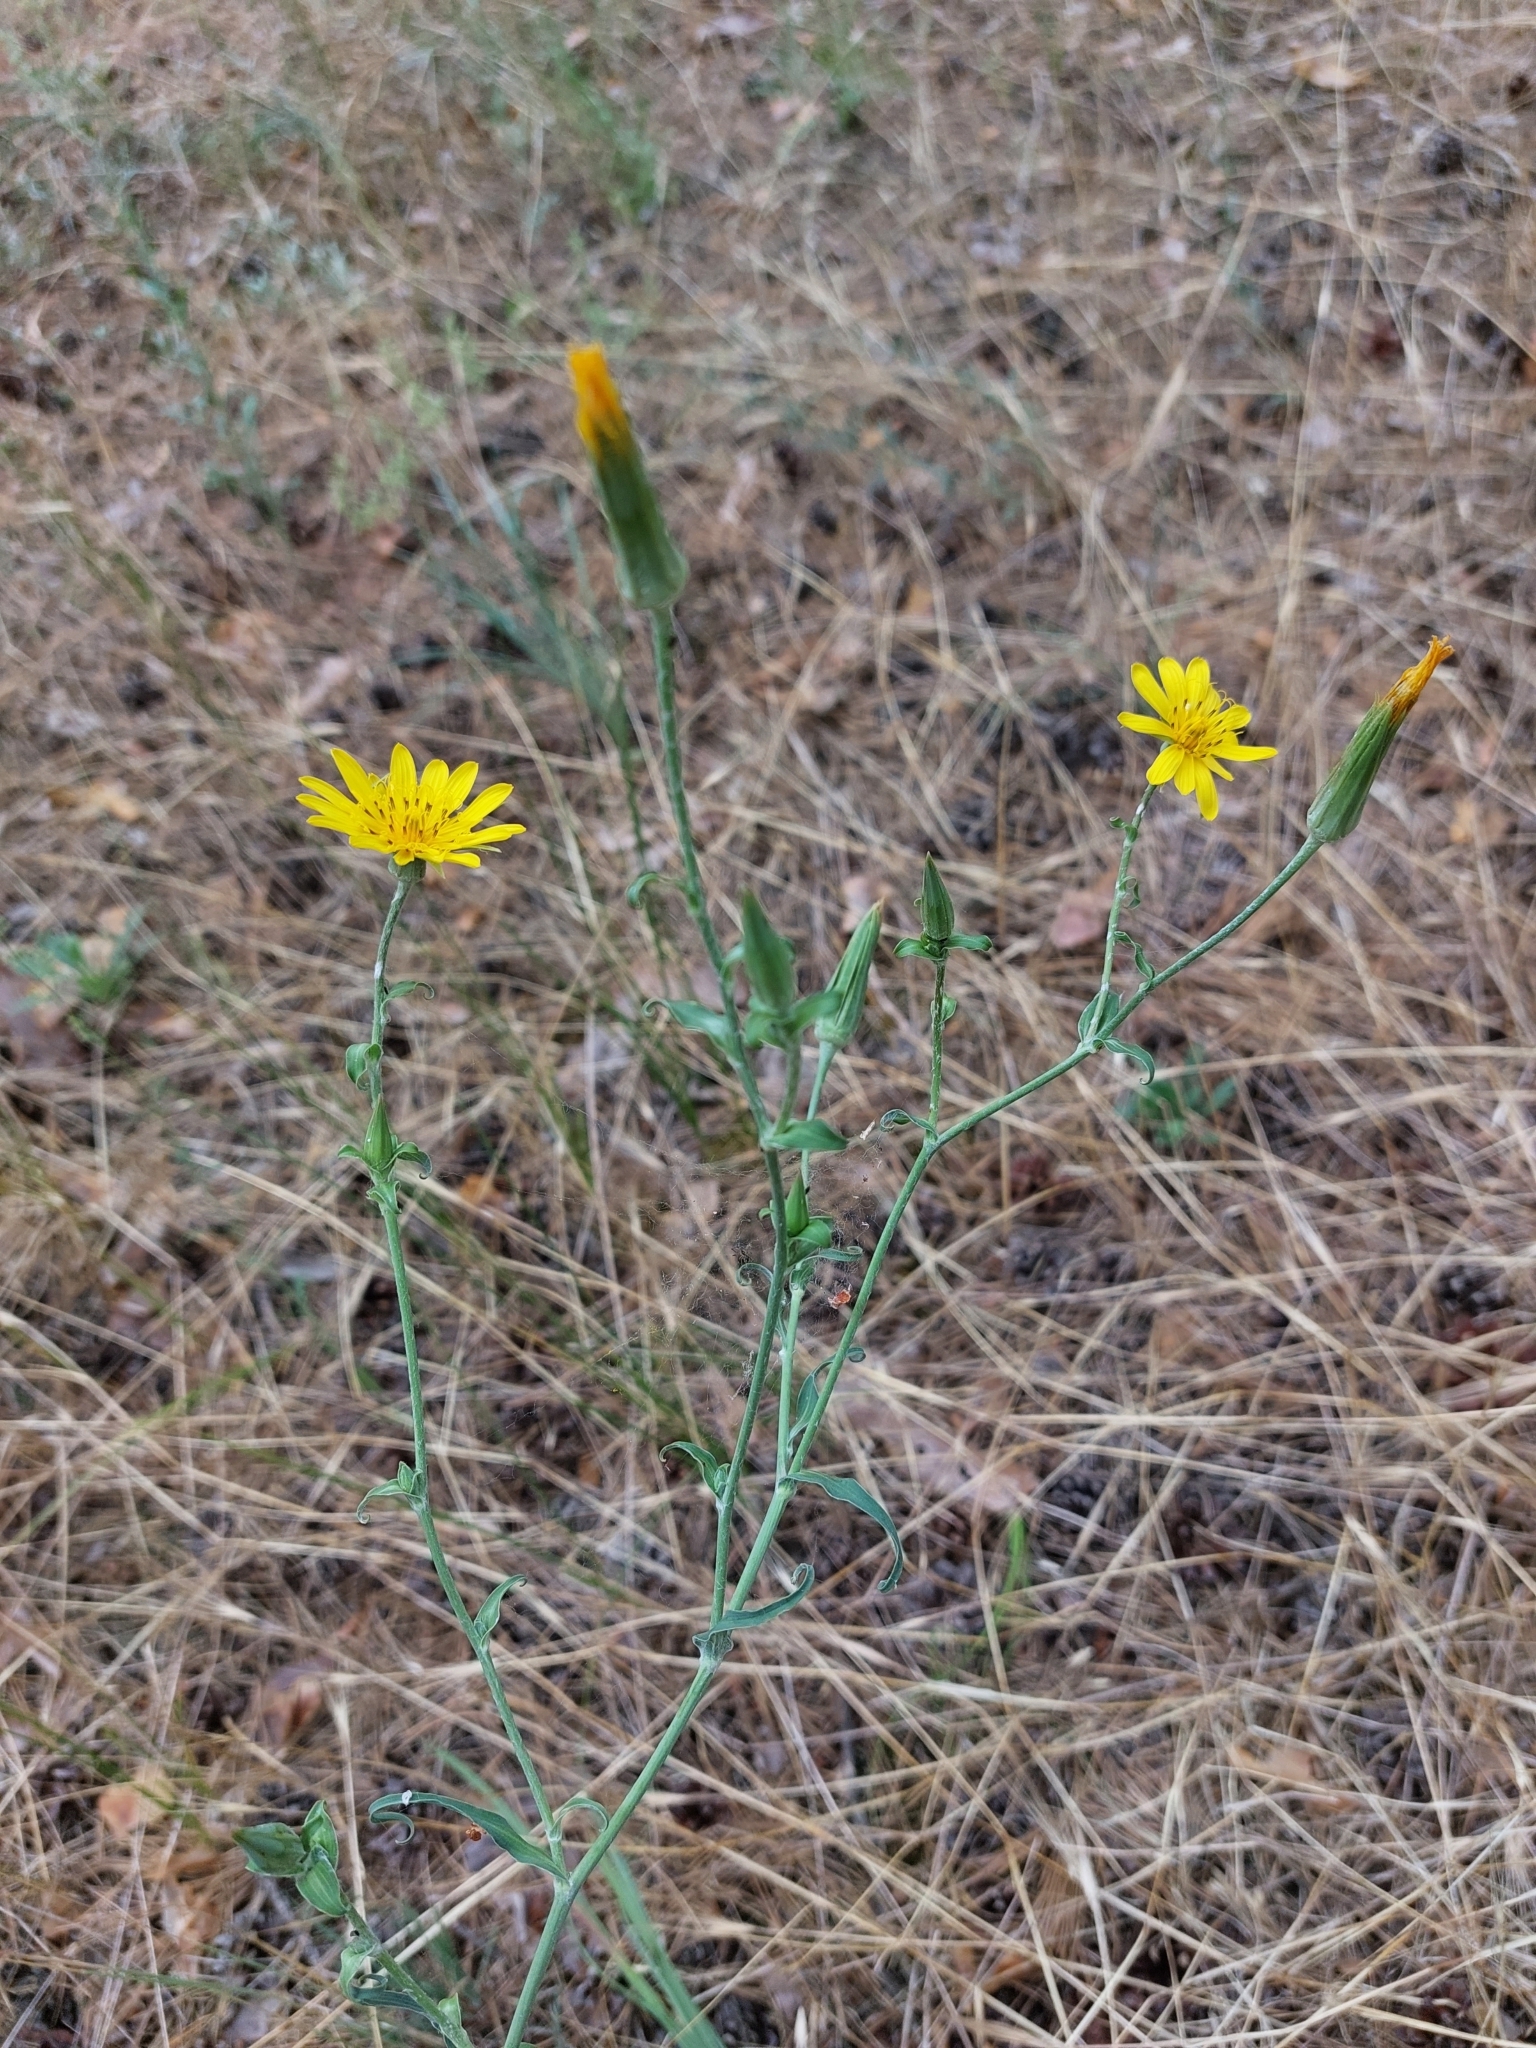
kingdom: Plantae
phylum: Tracheophyta
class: Magnoliopsida
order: Asterales
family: Asteraceae
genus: Tragopogon
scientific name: Tragopogon ucrainicus
